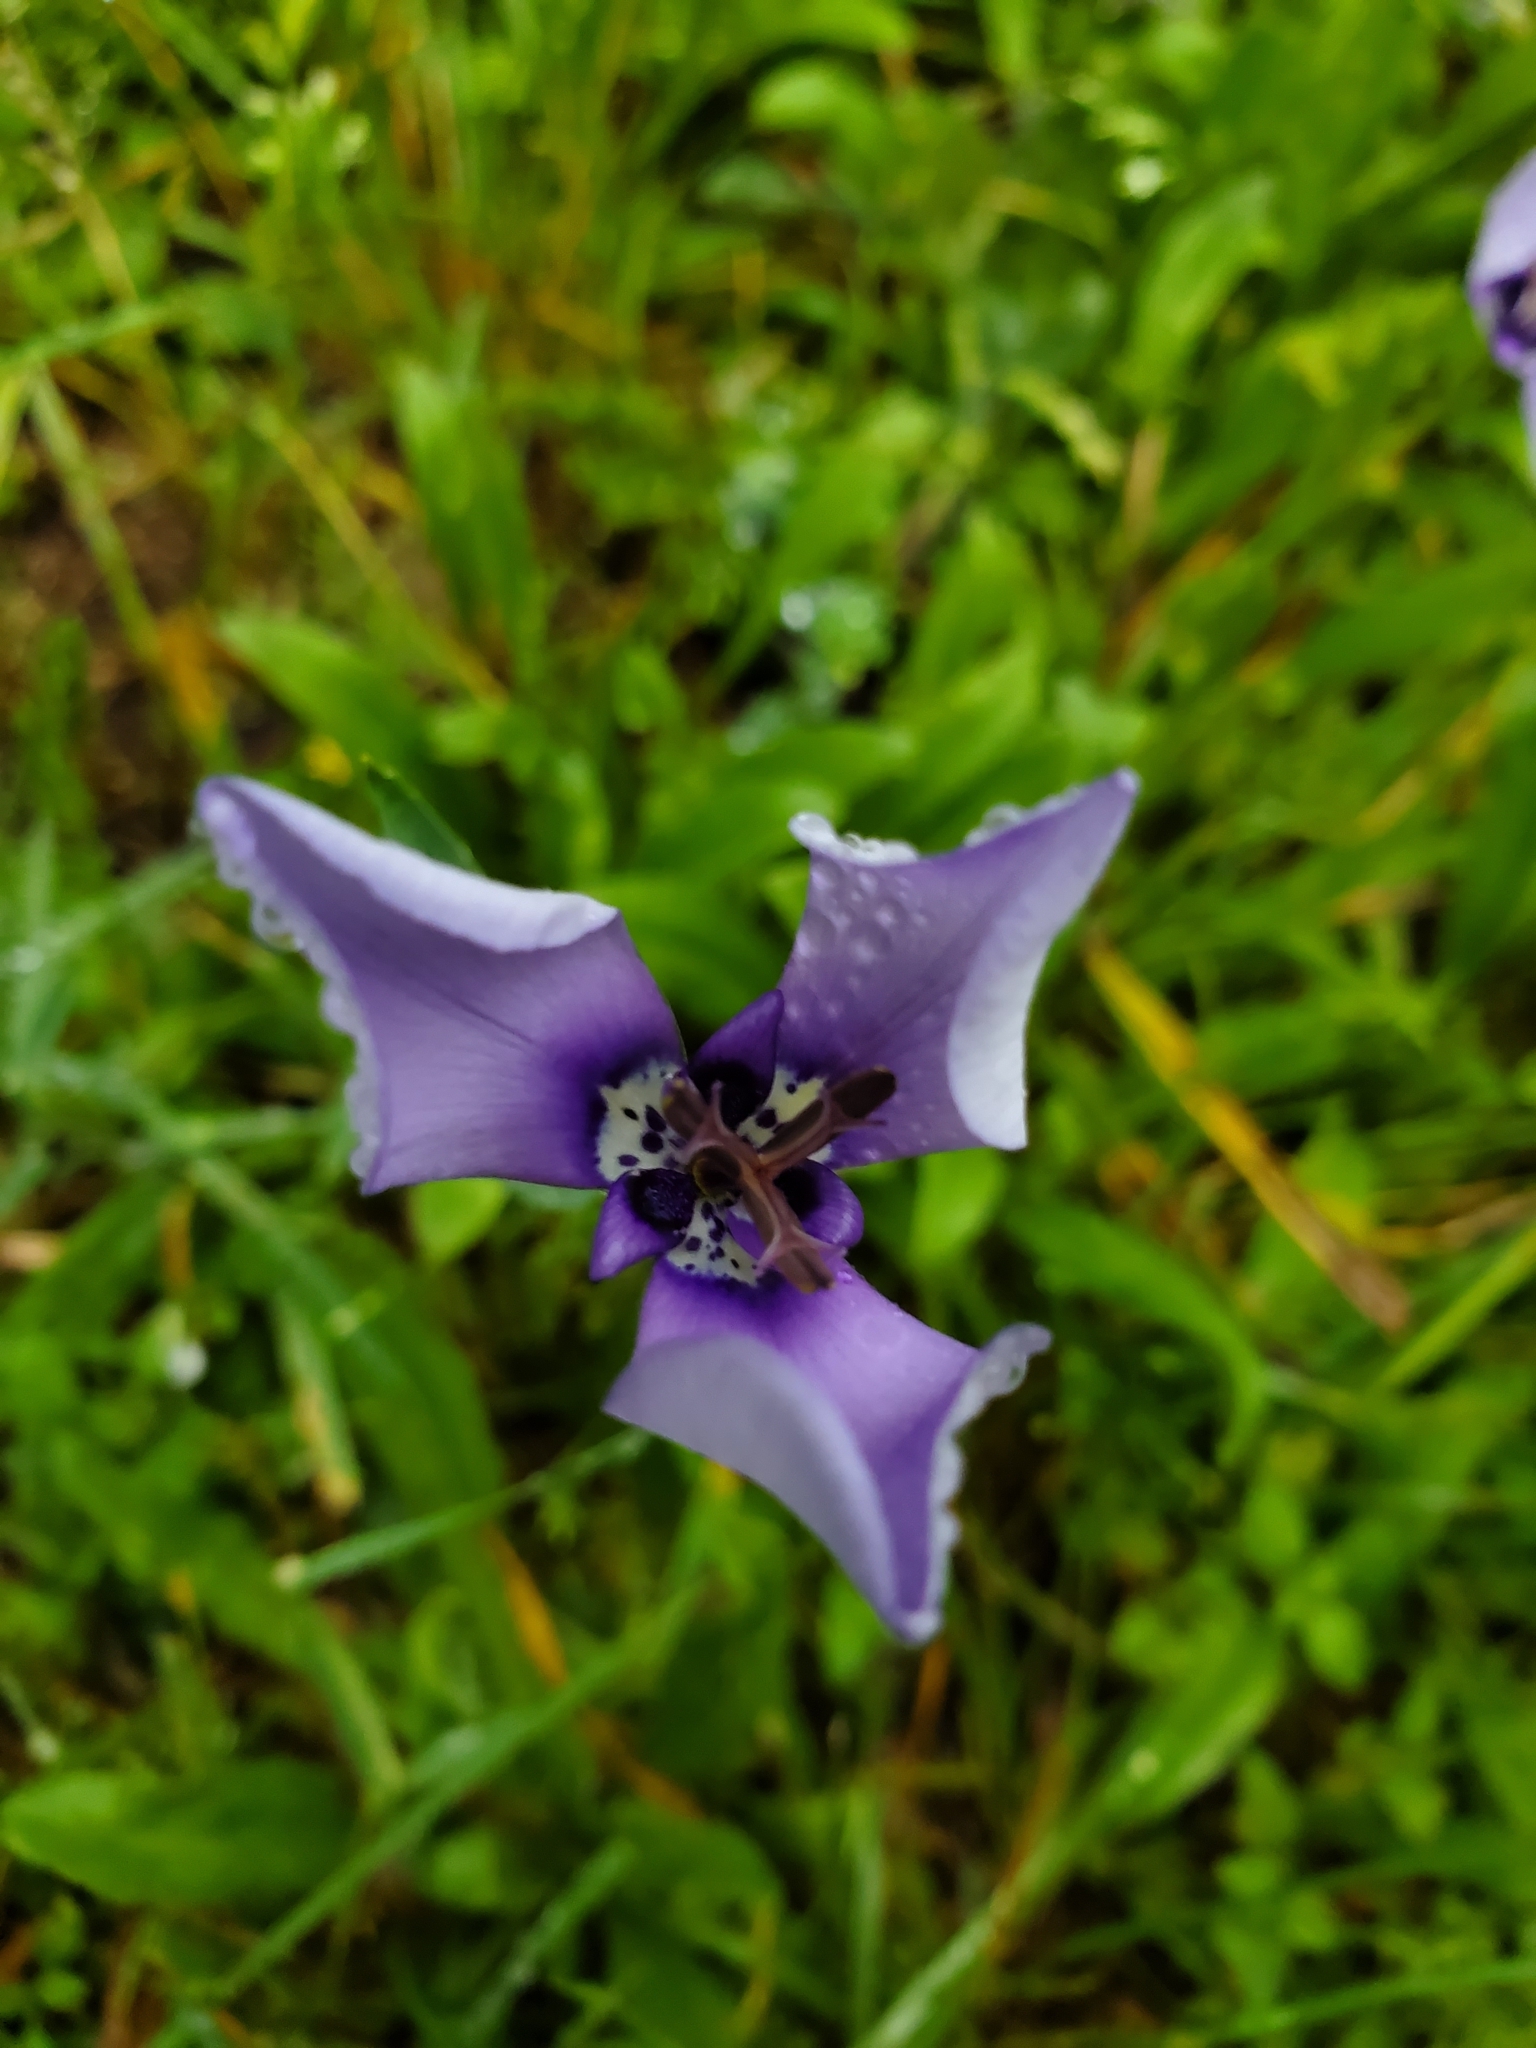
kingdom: Plantae
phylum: Tracheophyta
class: Liliopsida
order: Asparagales
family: Iridaceae
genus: Herbertia
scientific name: Herbertia lahue
